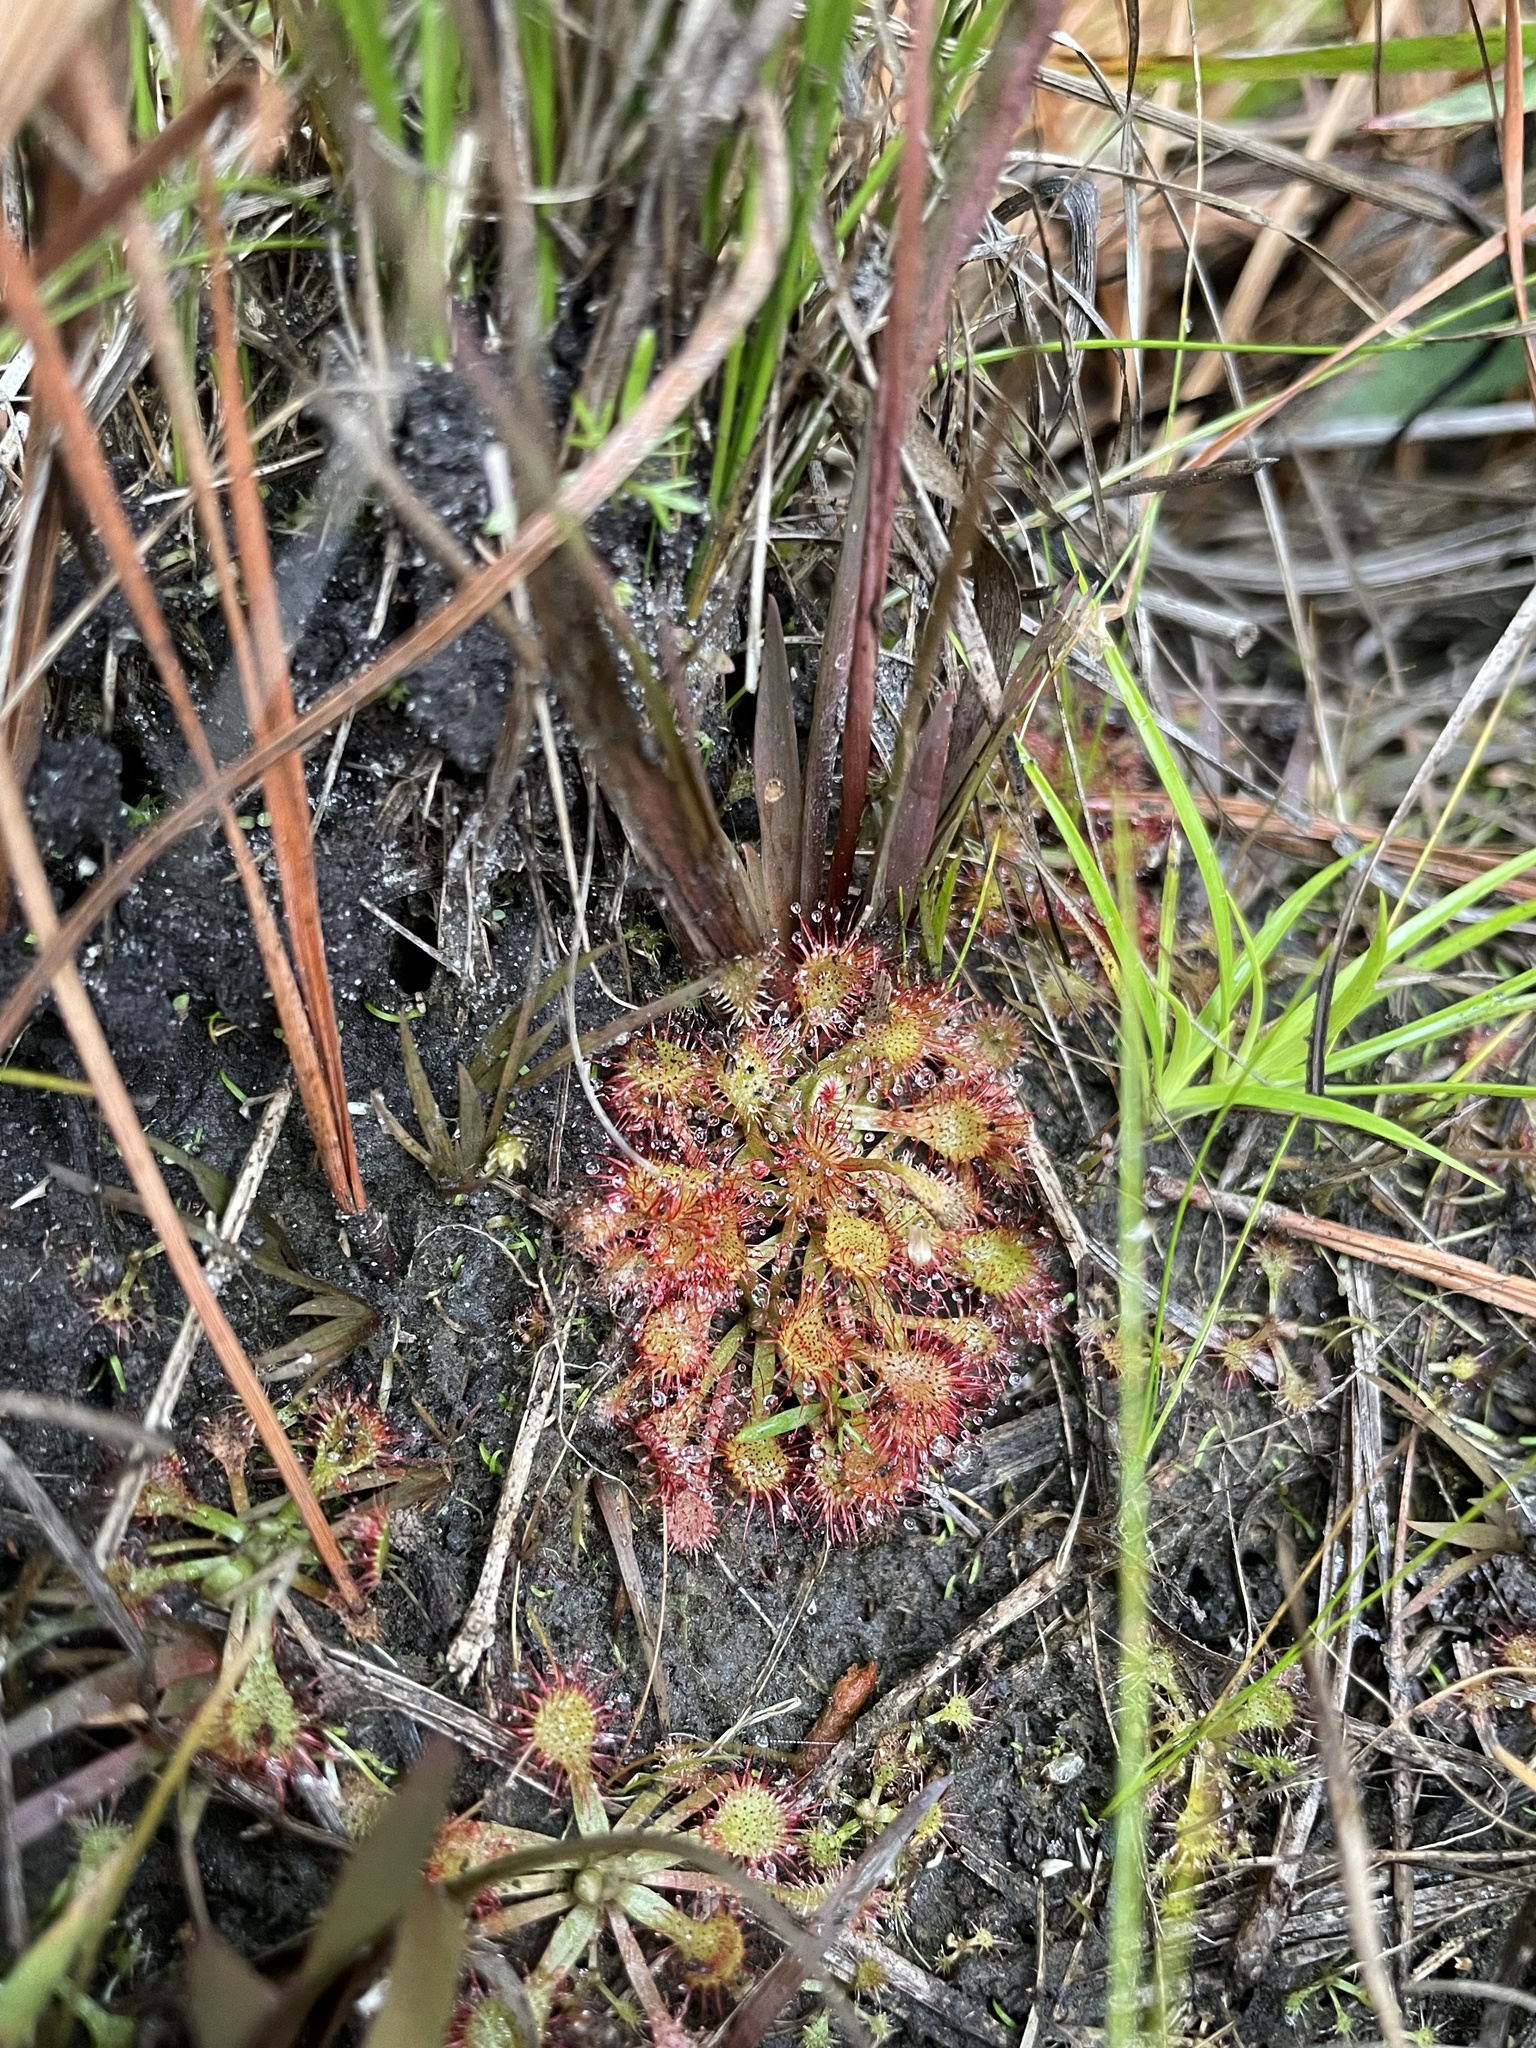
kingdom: Plantae
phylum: Tracheophyta
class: Magnoliopsida
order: Caryophyllales
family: Droseraceae
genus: Drosera
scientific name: Drosera capillaris
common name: Pink sundew
